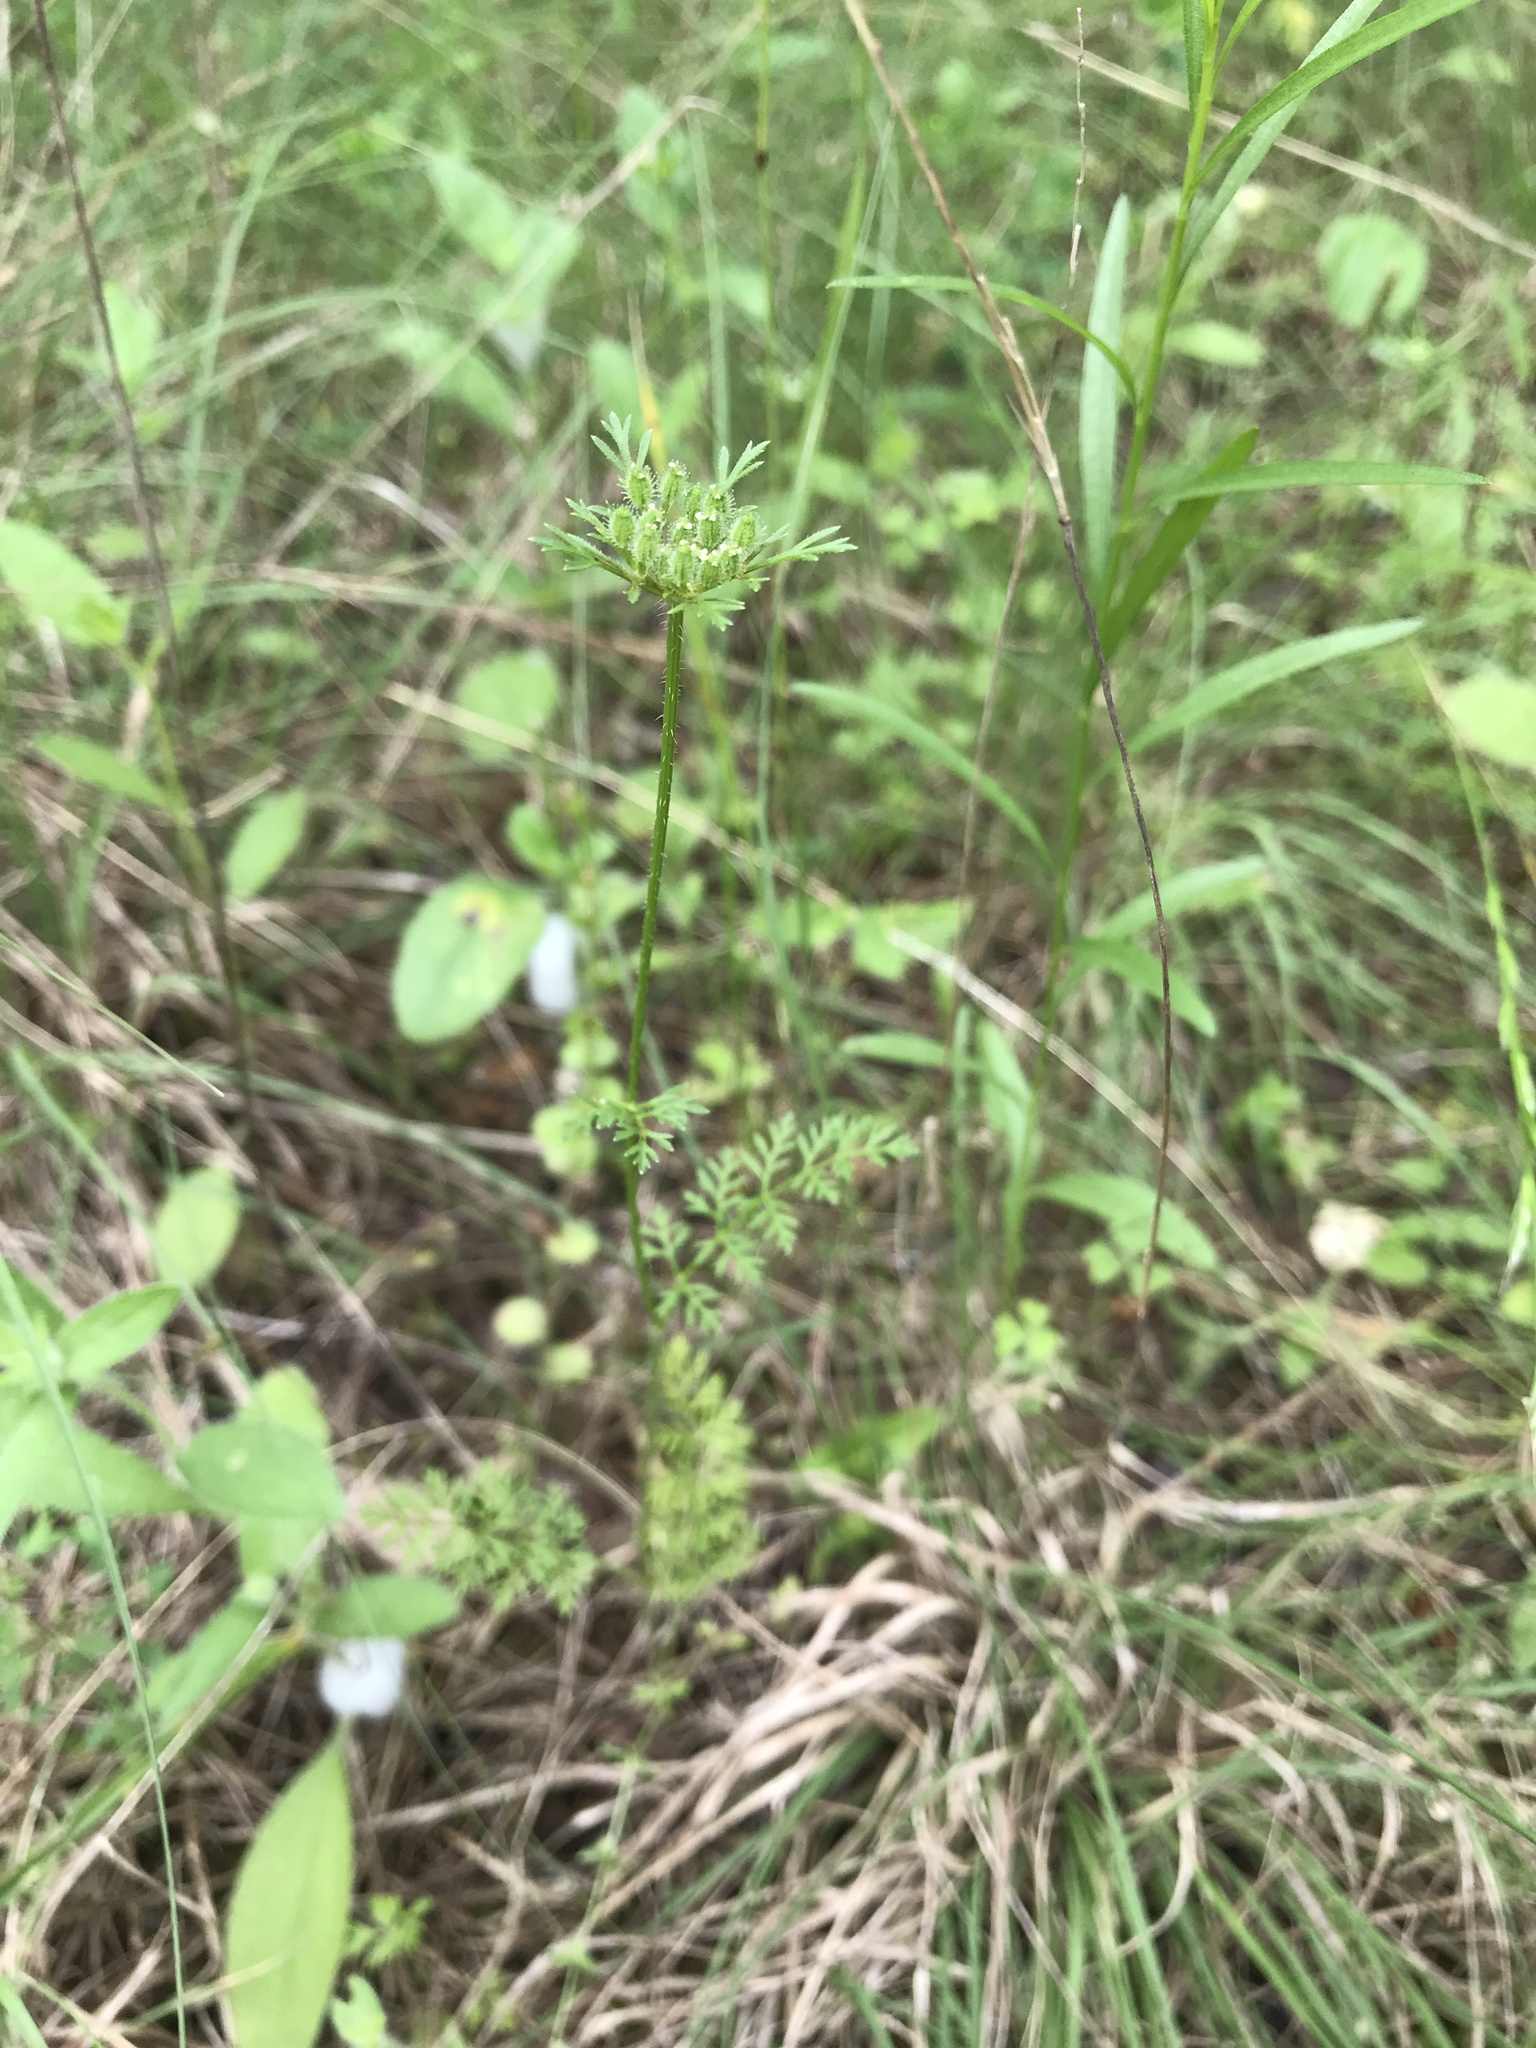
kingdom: Plantae
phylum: Tracheophyta
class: Magnoliopsida
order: Apiales
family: Apiaceae
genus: Daucus
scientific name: Daucus pusillus
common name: Southwest wild carrot
